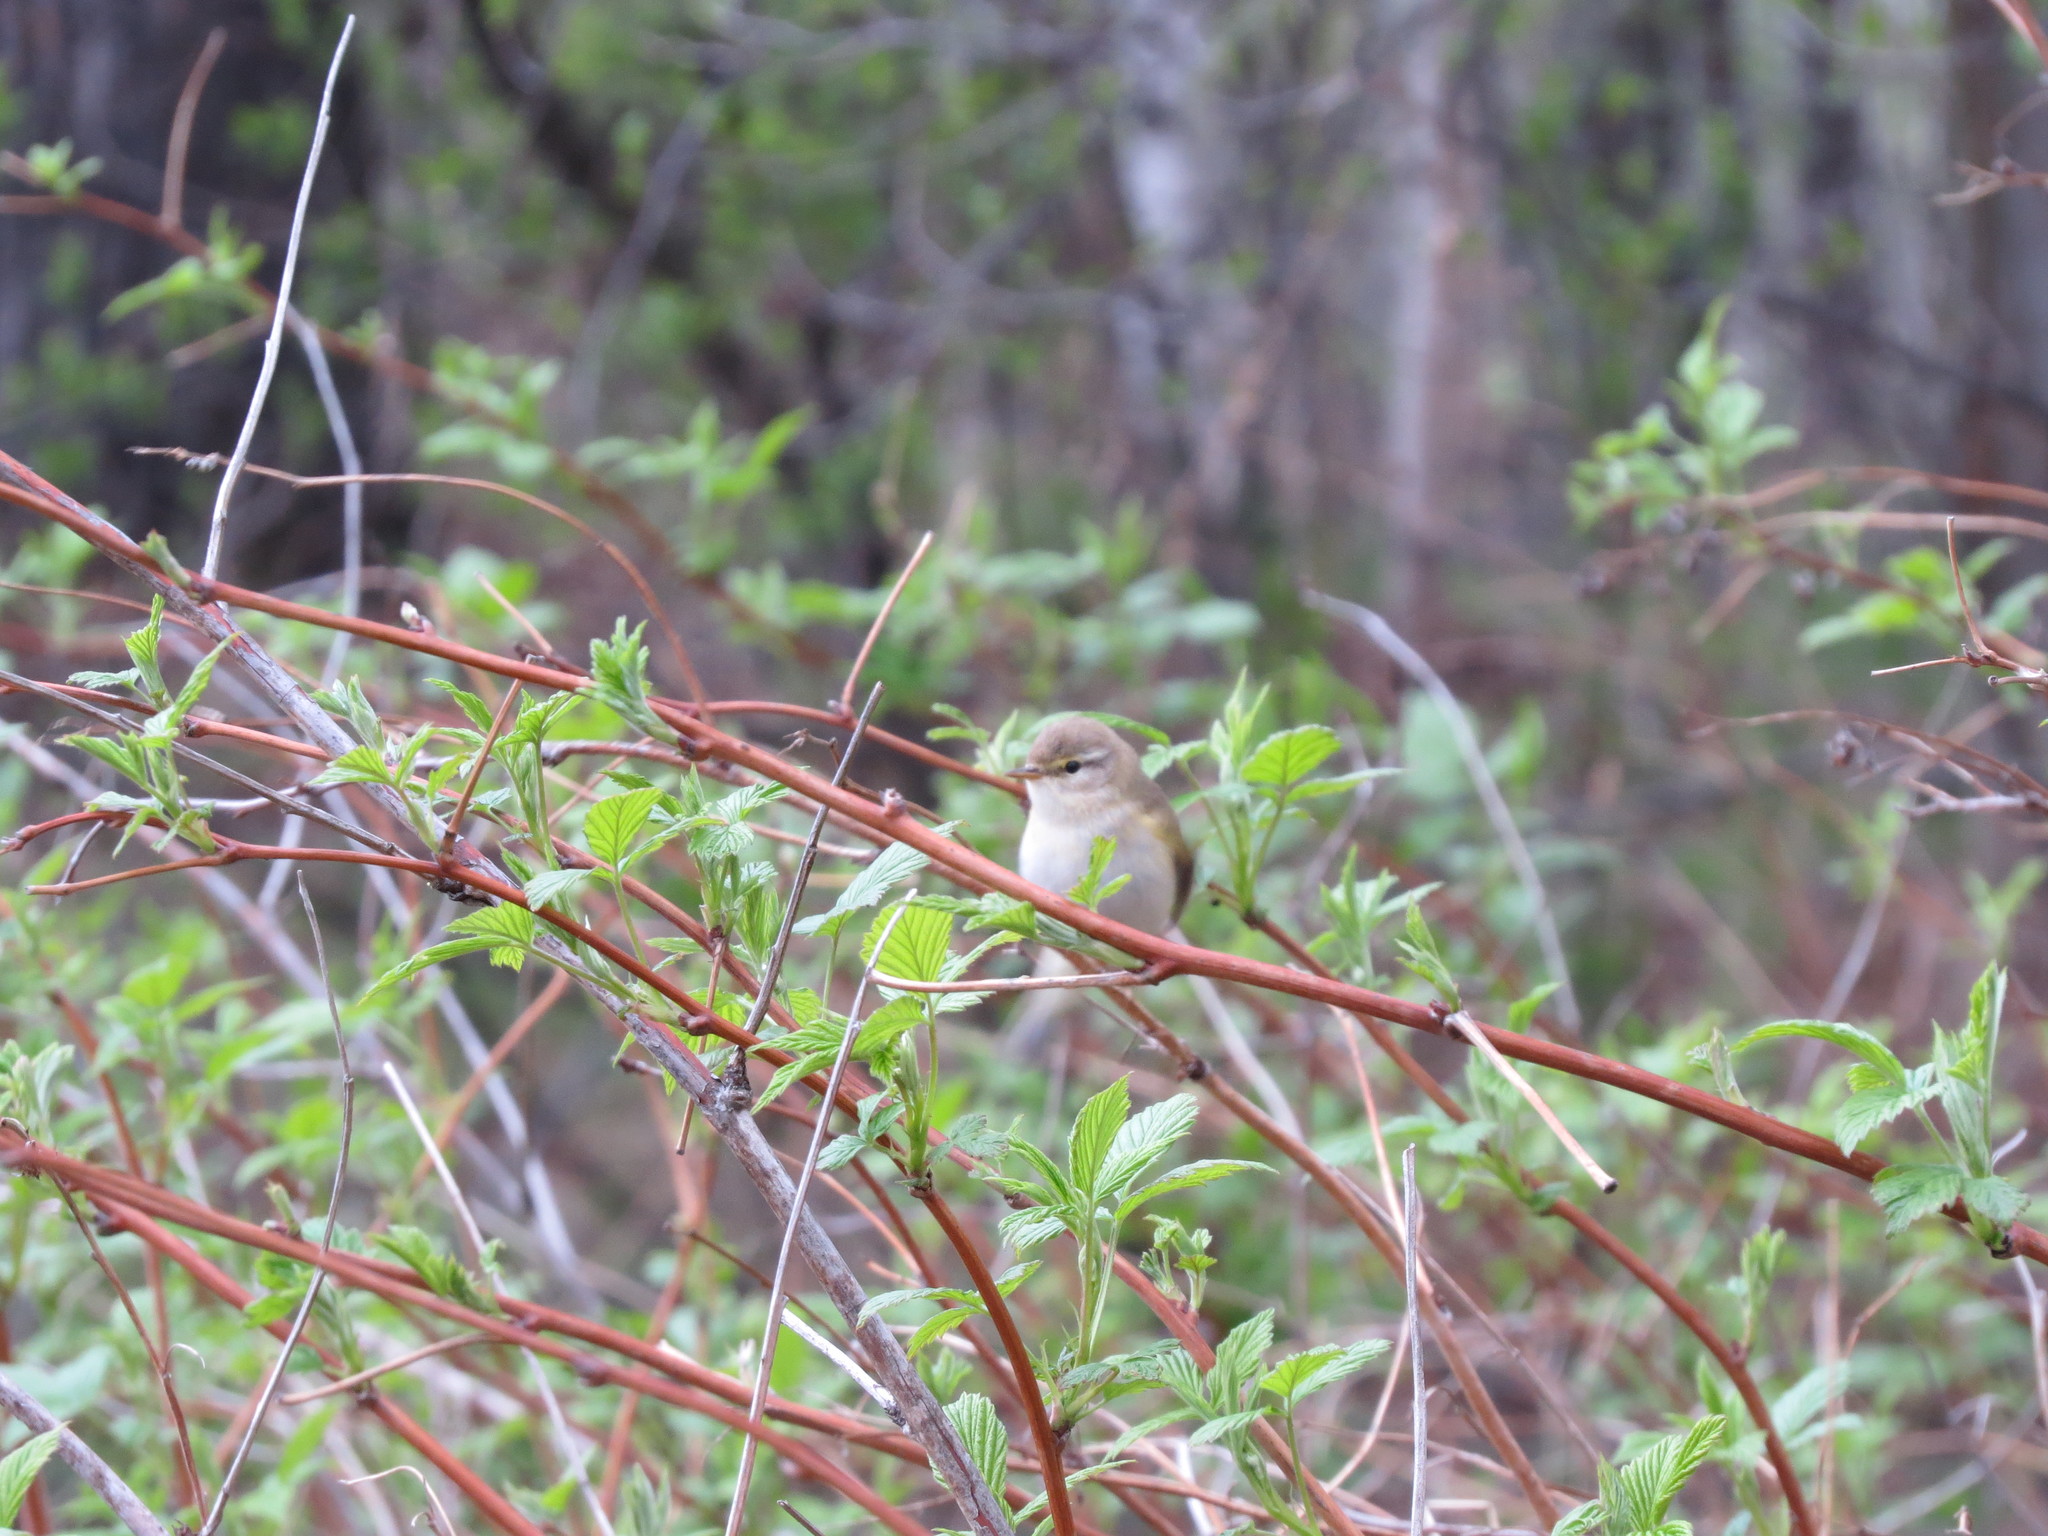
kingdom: Animalia
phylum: Chordata
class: Aves
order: Passeriformes
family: Phylloscopidae
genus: Phylloscopus
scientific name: Phylloscopus trochilus
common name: Willow warbler
